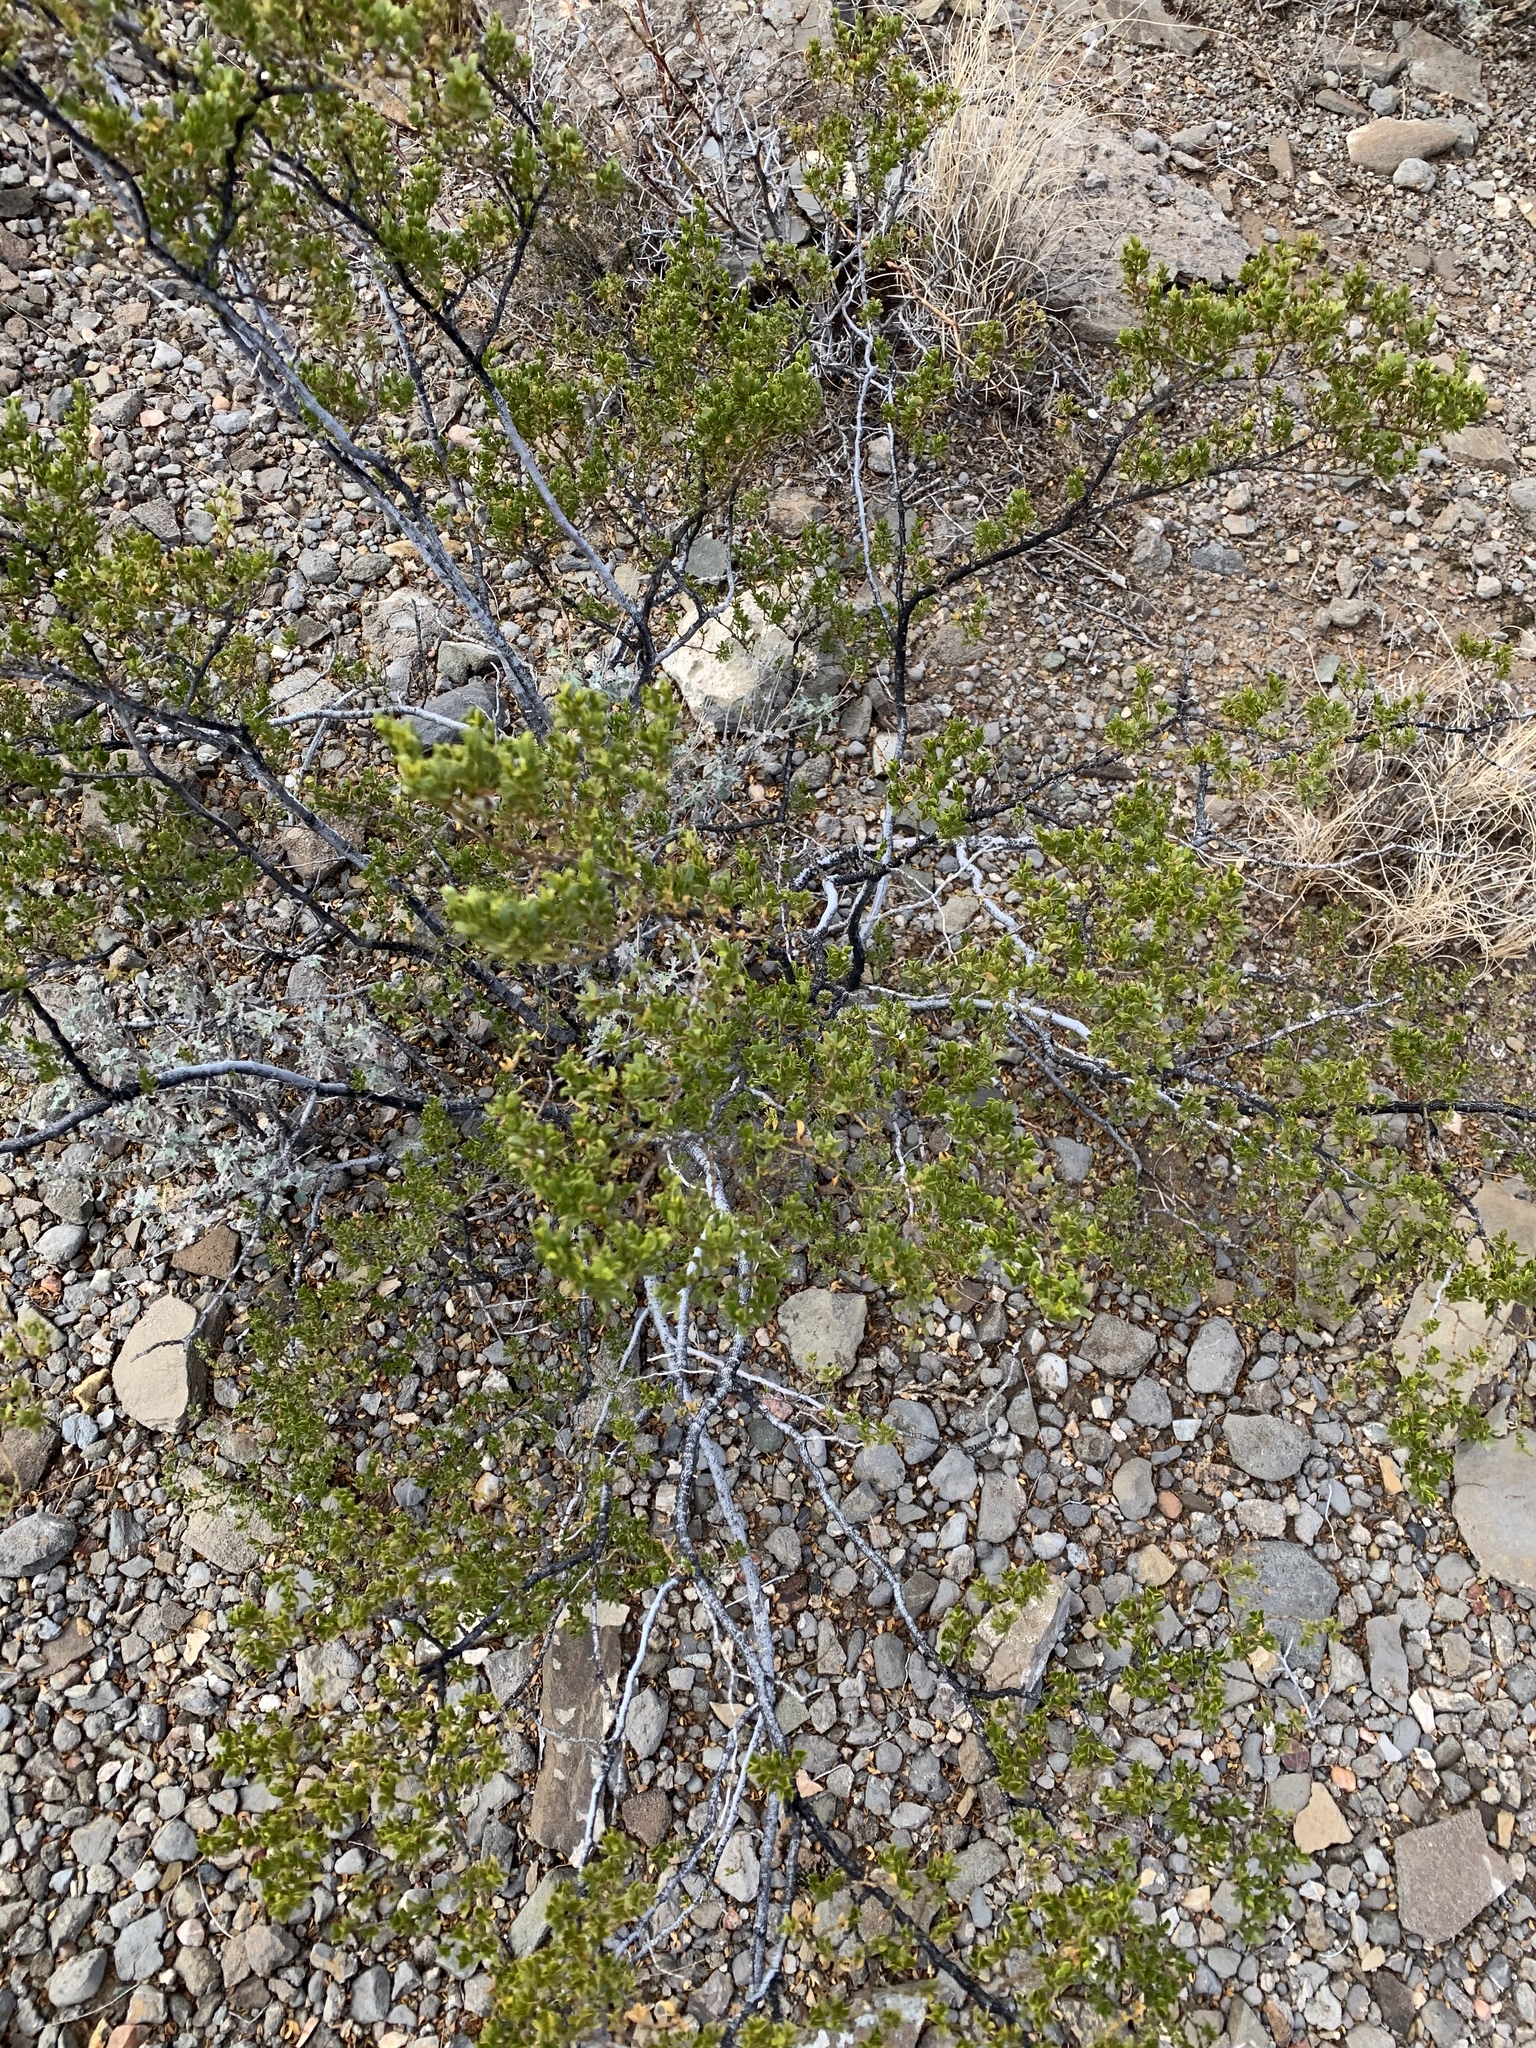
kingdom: Plantae
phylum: Tracheophyta
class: Magnoliopsida
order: Zygophyllales
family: Zygophyllaceae
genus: Larrea
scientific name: Larrea tridentata
